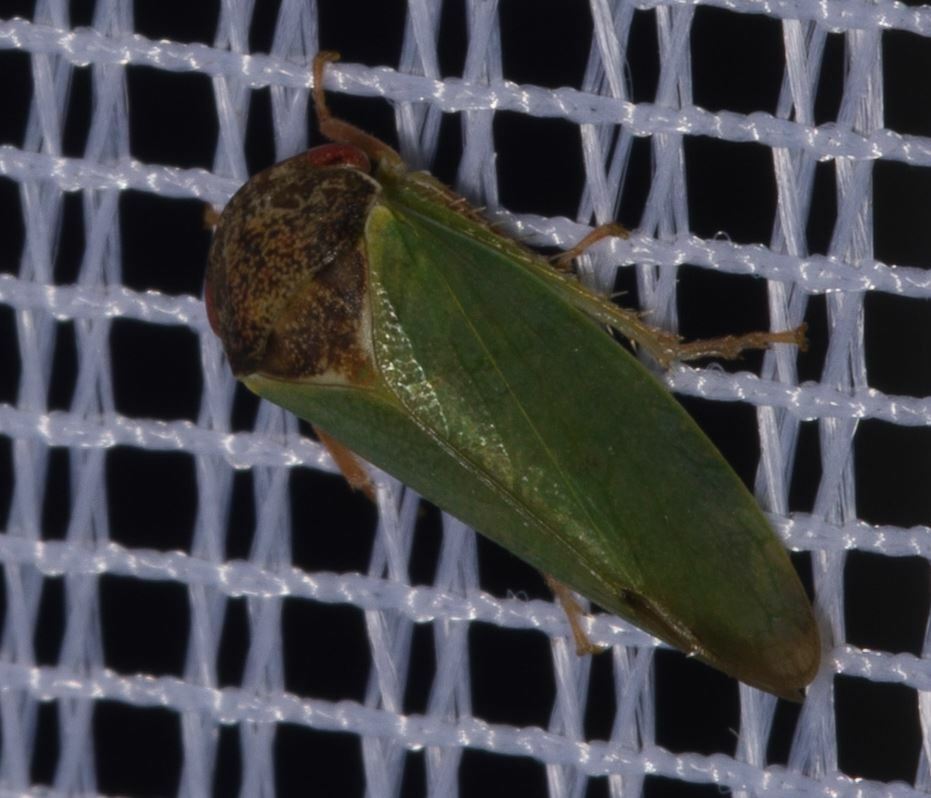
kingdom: Animalia
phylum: Arthropoda
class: Insecta
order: Hemiptera
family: Cicadellidae
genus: Iassus
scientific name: Iassus lanio
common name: Leafhopper
